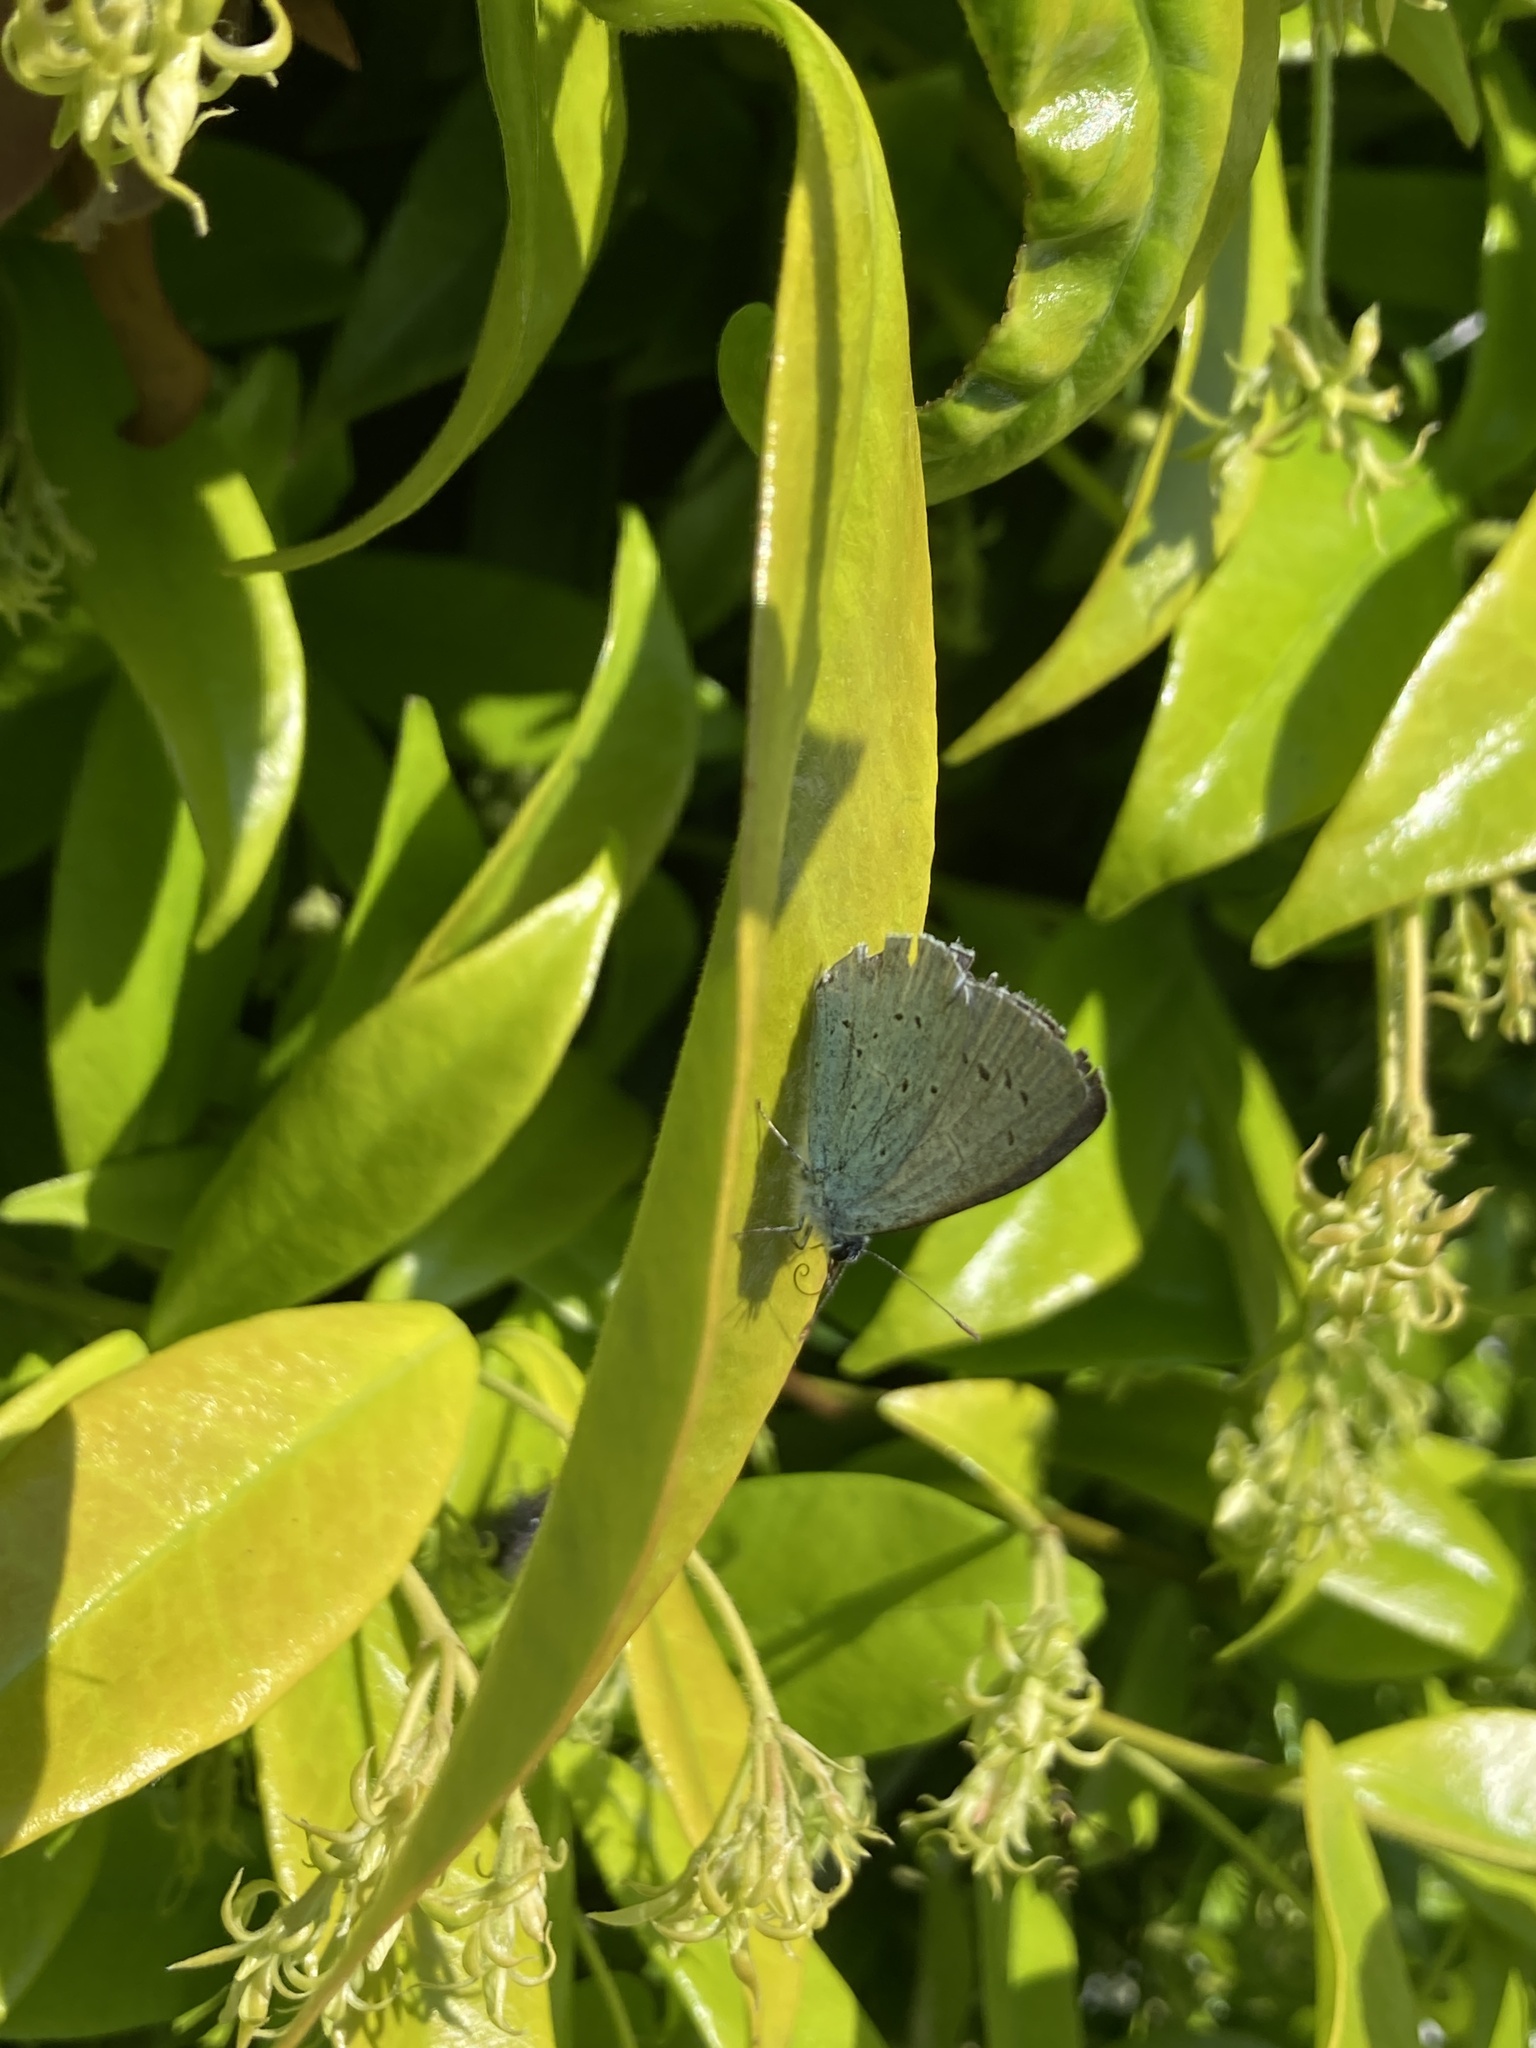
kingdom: Animalia
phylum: Arthropoda
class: Insecta
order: Lepidoptera
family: Lycaenidae
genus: Celastrina
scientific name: Celastrina argiolus
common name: Holly blue
